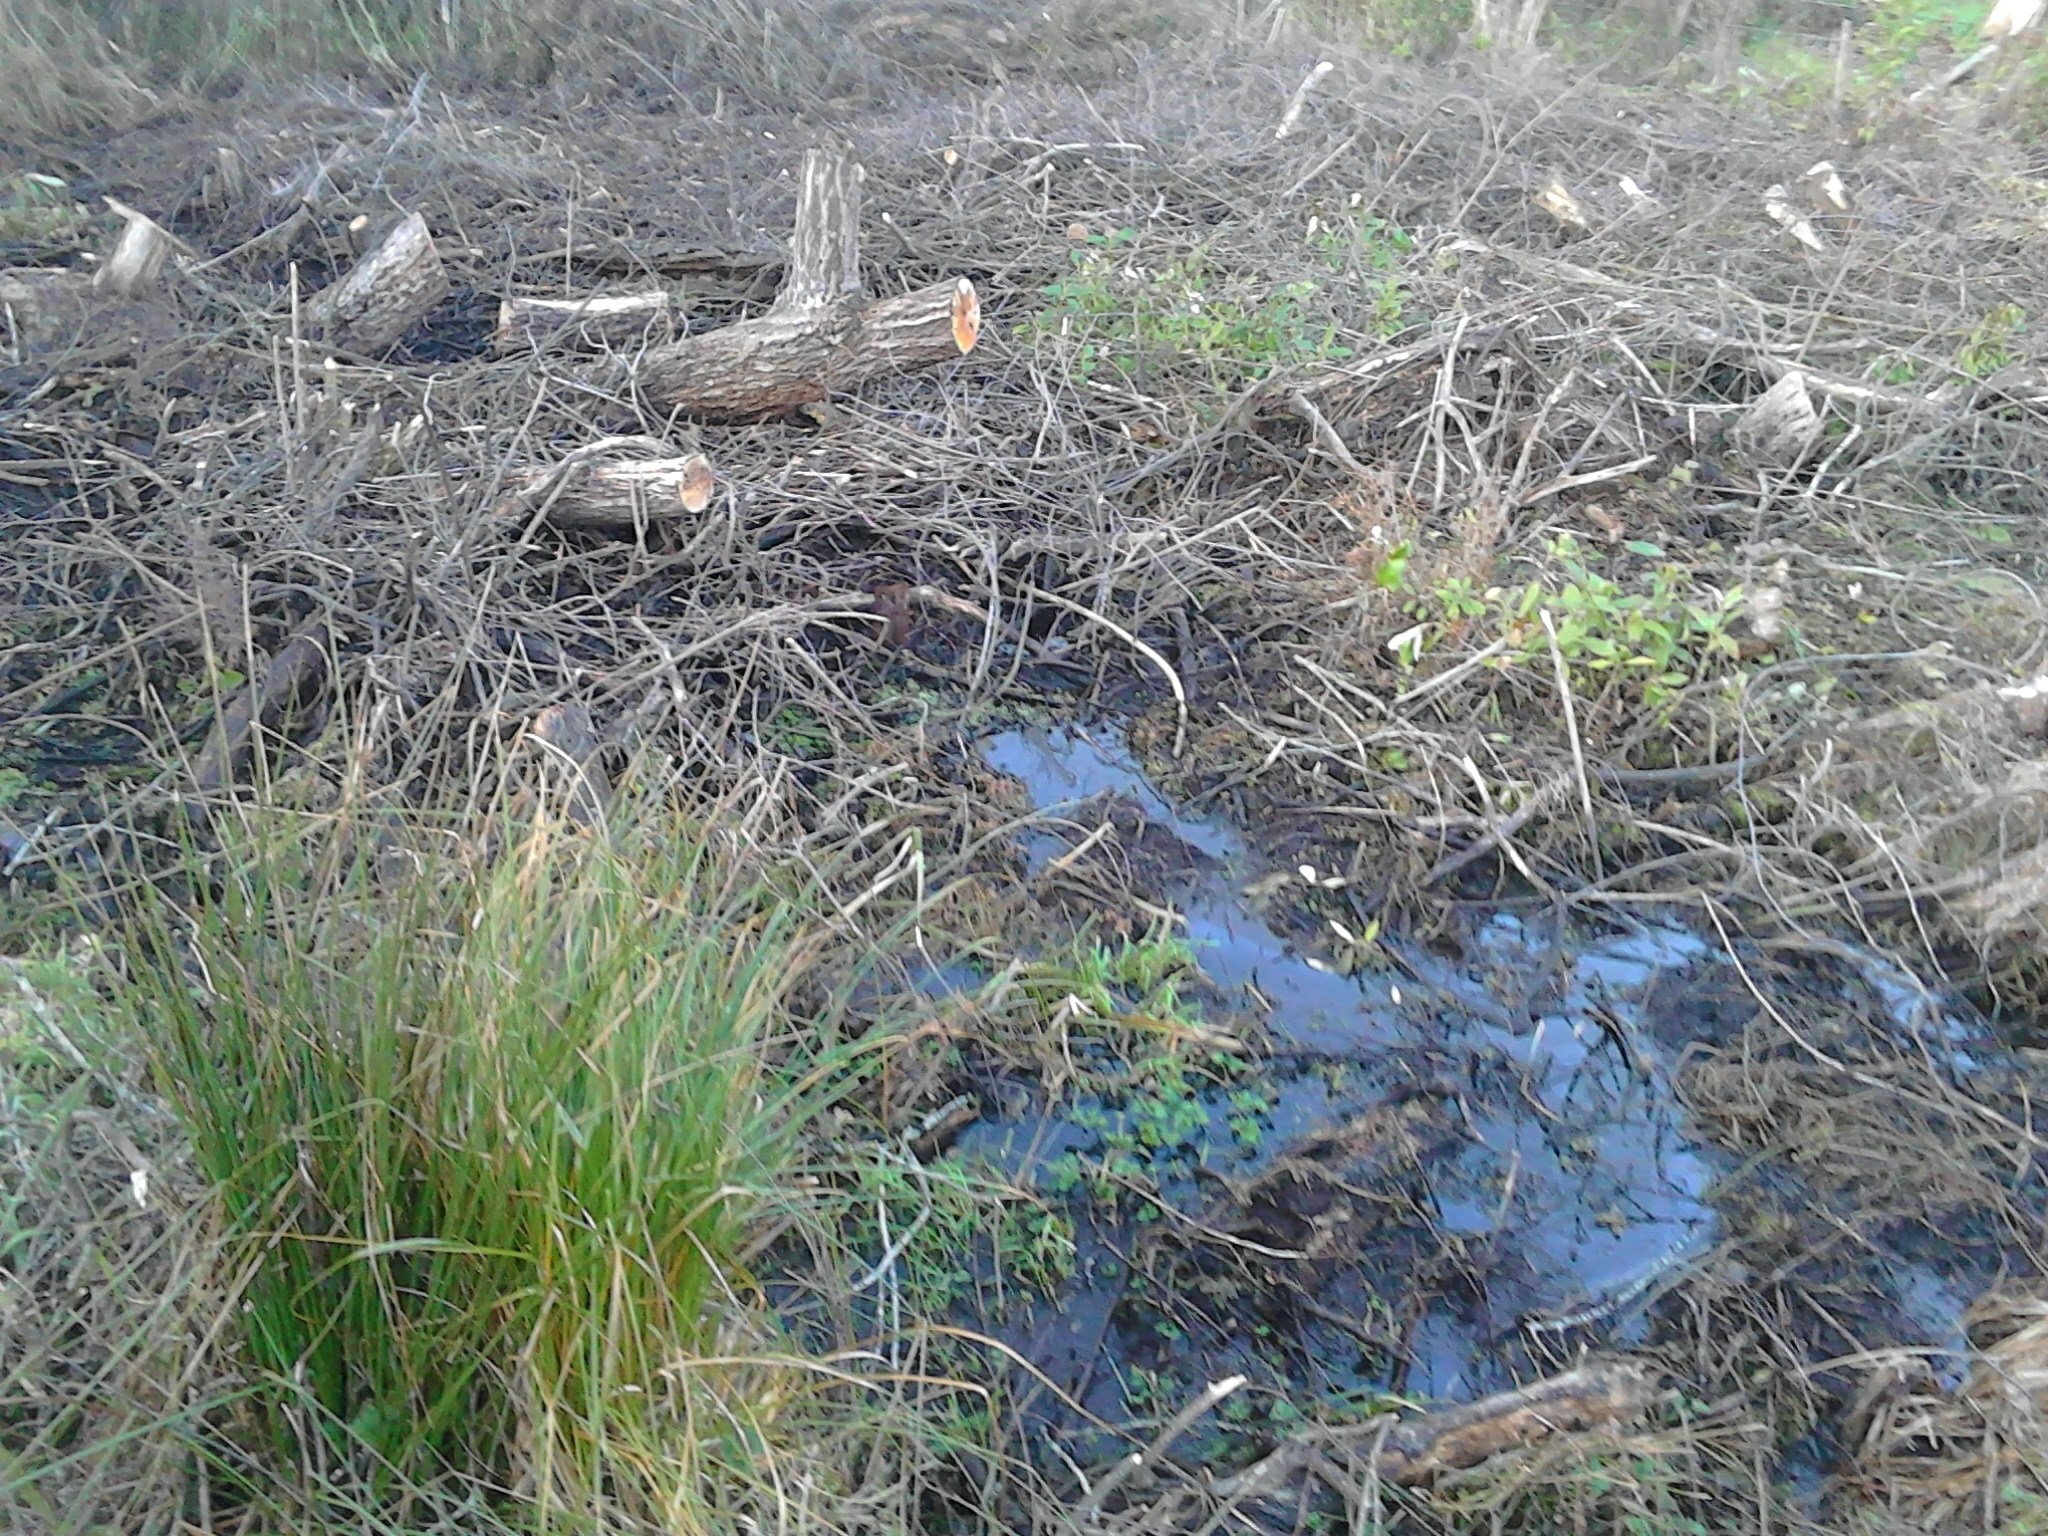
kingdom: Plantae
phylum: Tracheophyta
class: Liliopsida
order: Poales
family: Cyperaceae
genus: Carex
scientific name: Carex secta
